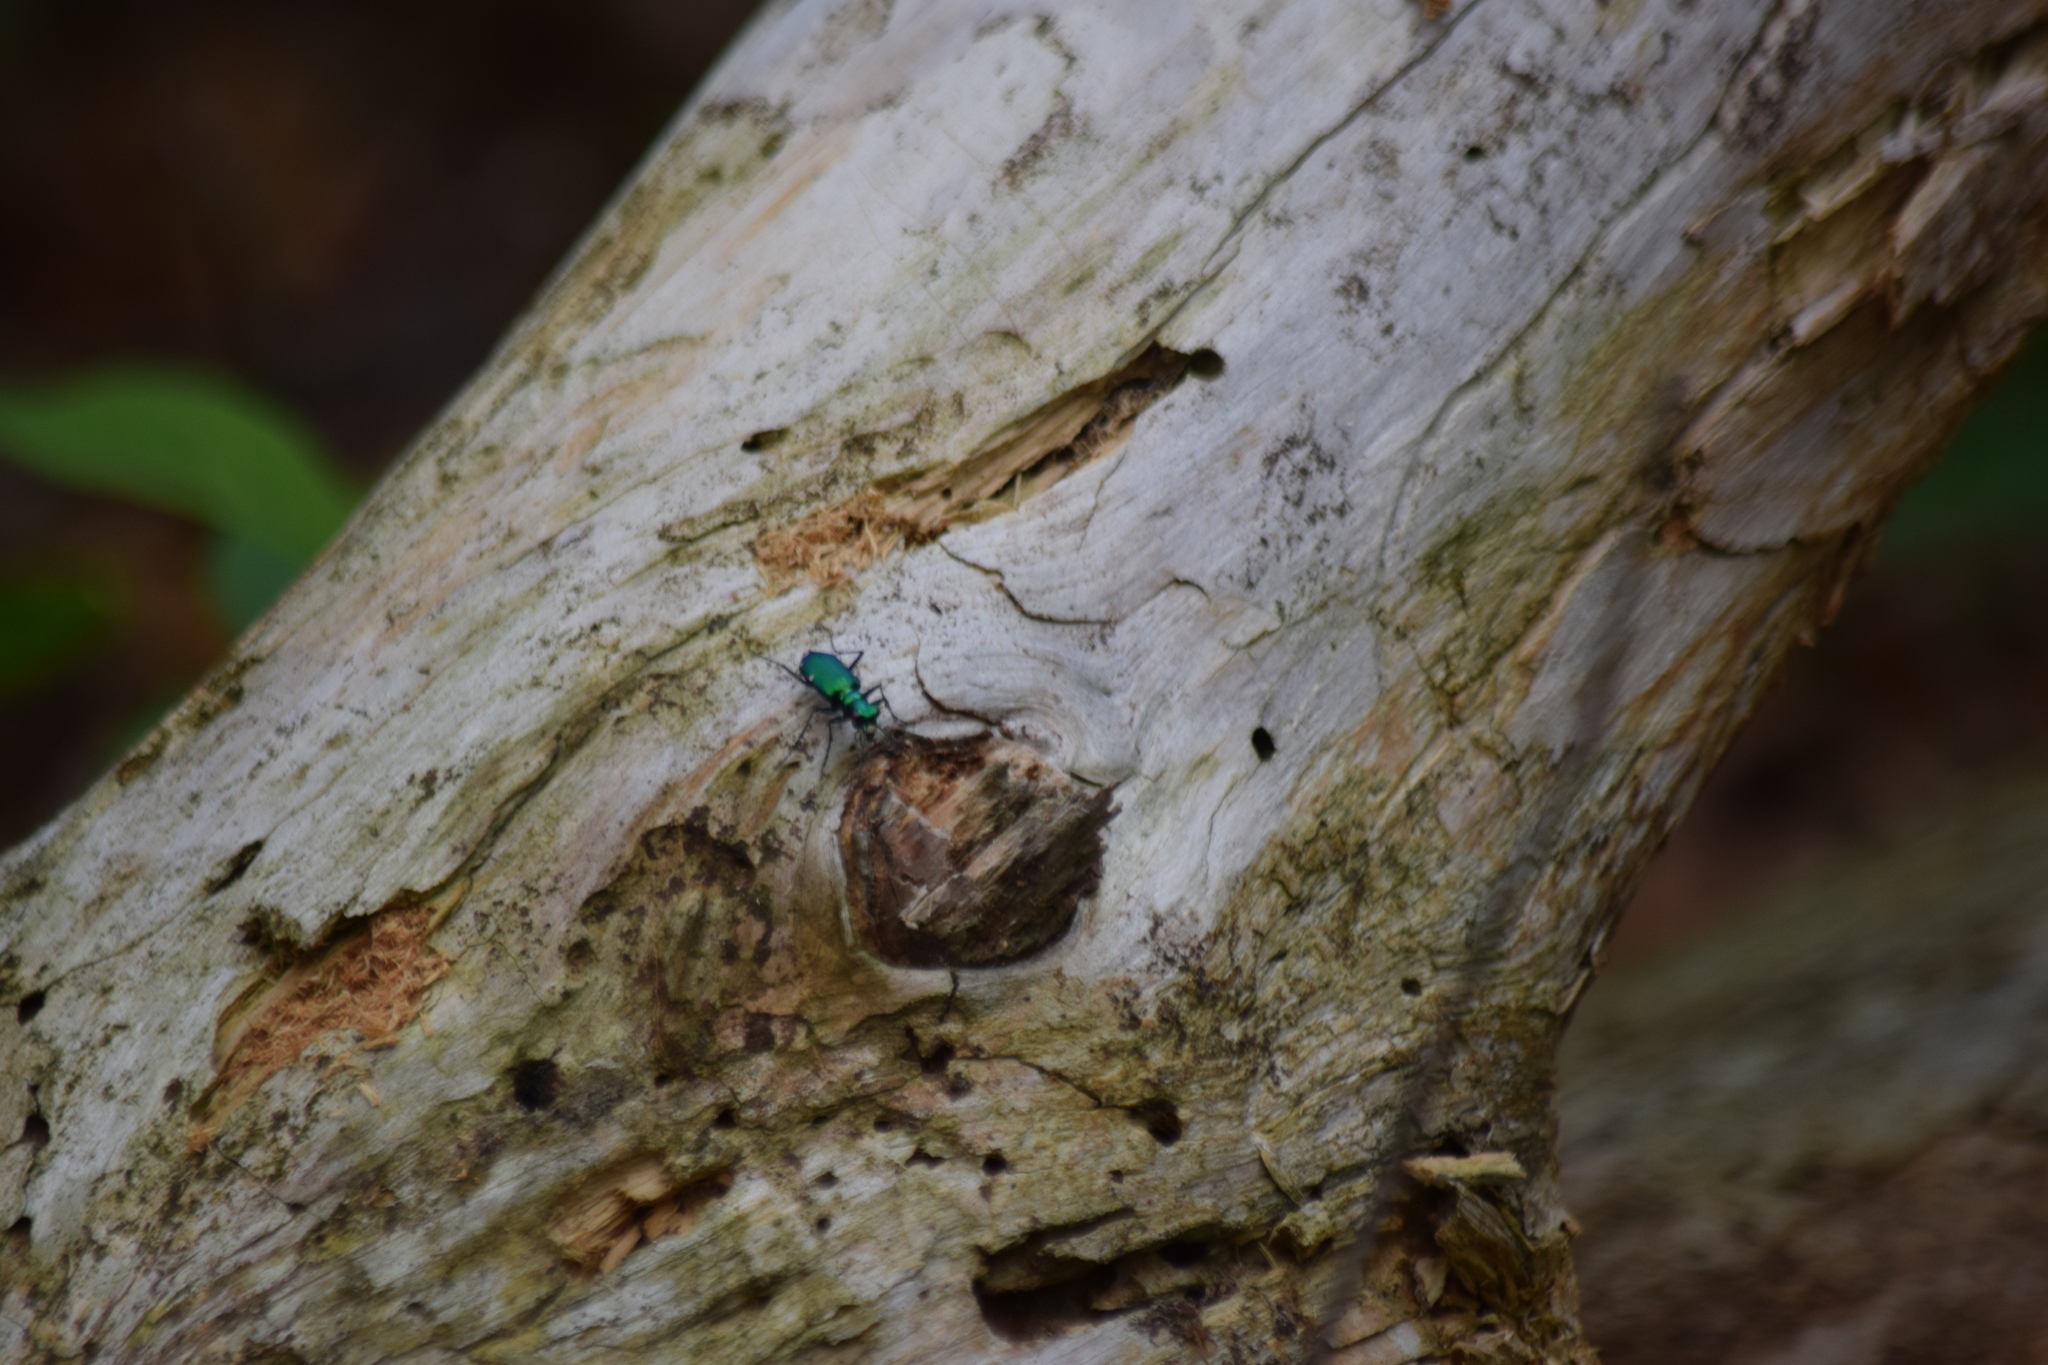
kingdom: Animalia
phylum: Arthropoda
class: Insecta
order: Coleoptera
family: Carabidae
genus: Cicindela
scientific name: Cicindela sexguttata
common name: Six-spotted tiger beetle
